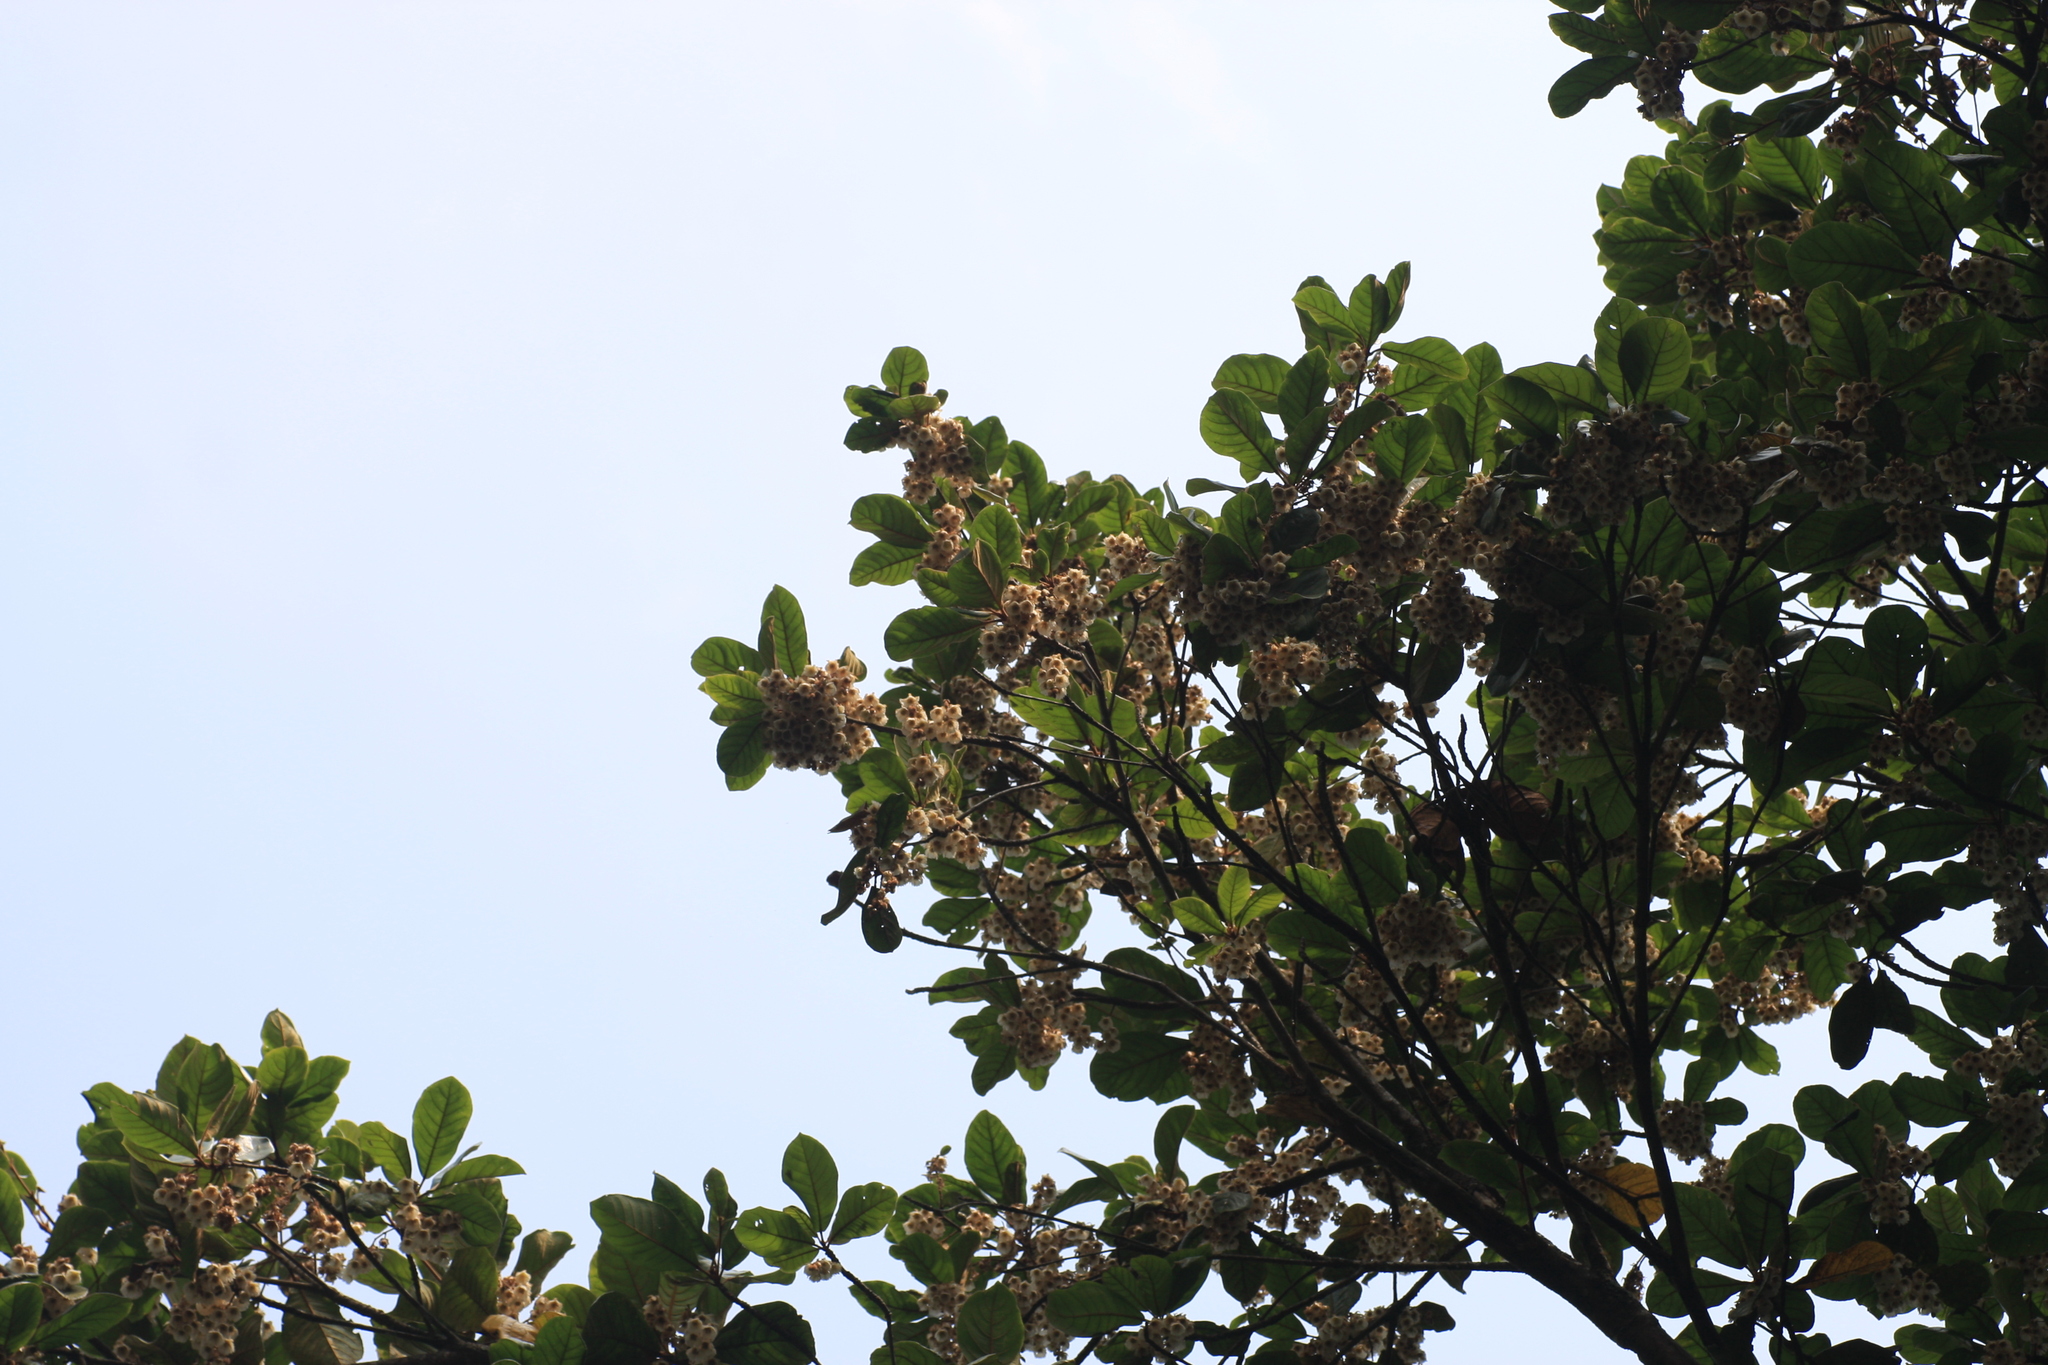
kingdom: Plantae
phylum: Tracheophyta
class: Magnoliopsida
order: Oxalidales
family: Elaeocarpaceae
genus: Elaeocarpus
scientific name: Elaeocarpus tuberculatus
